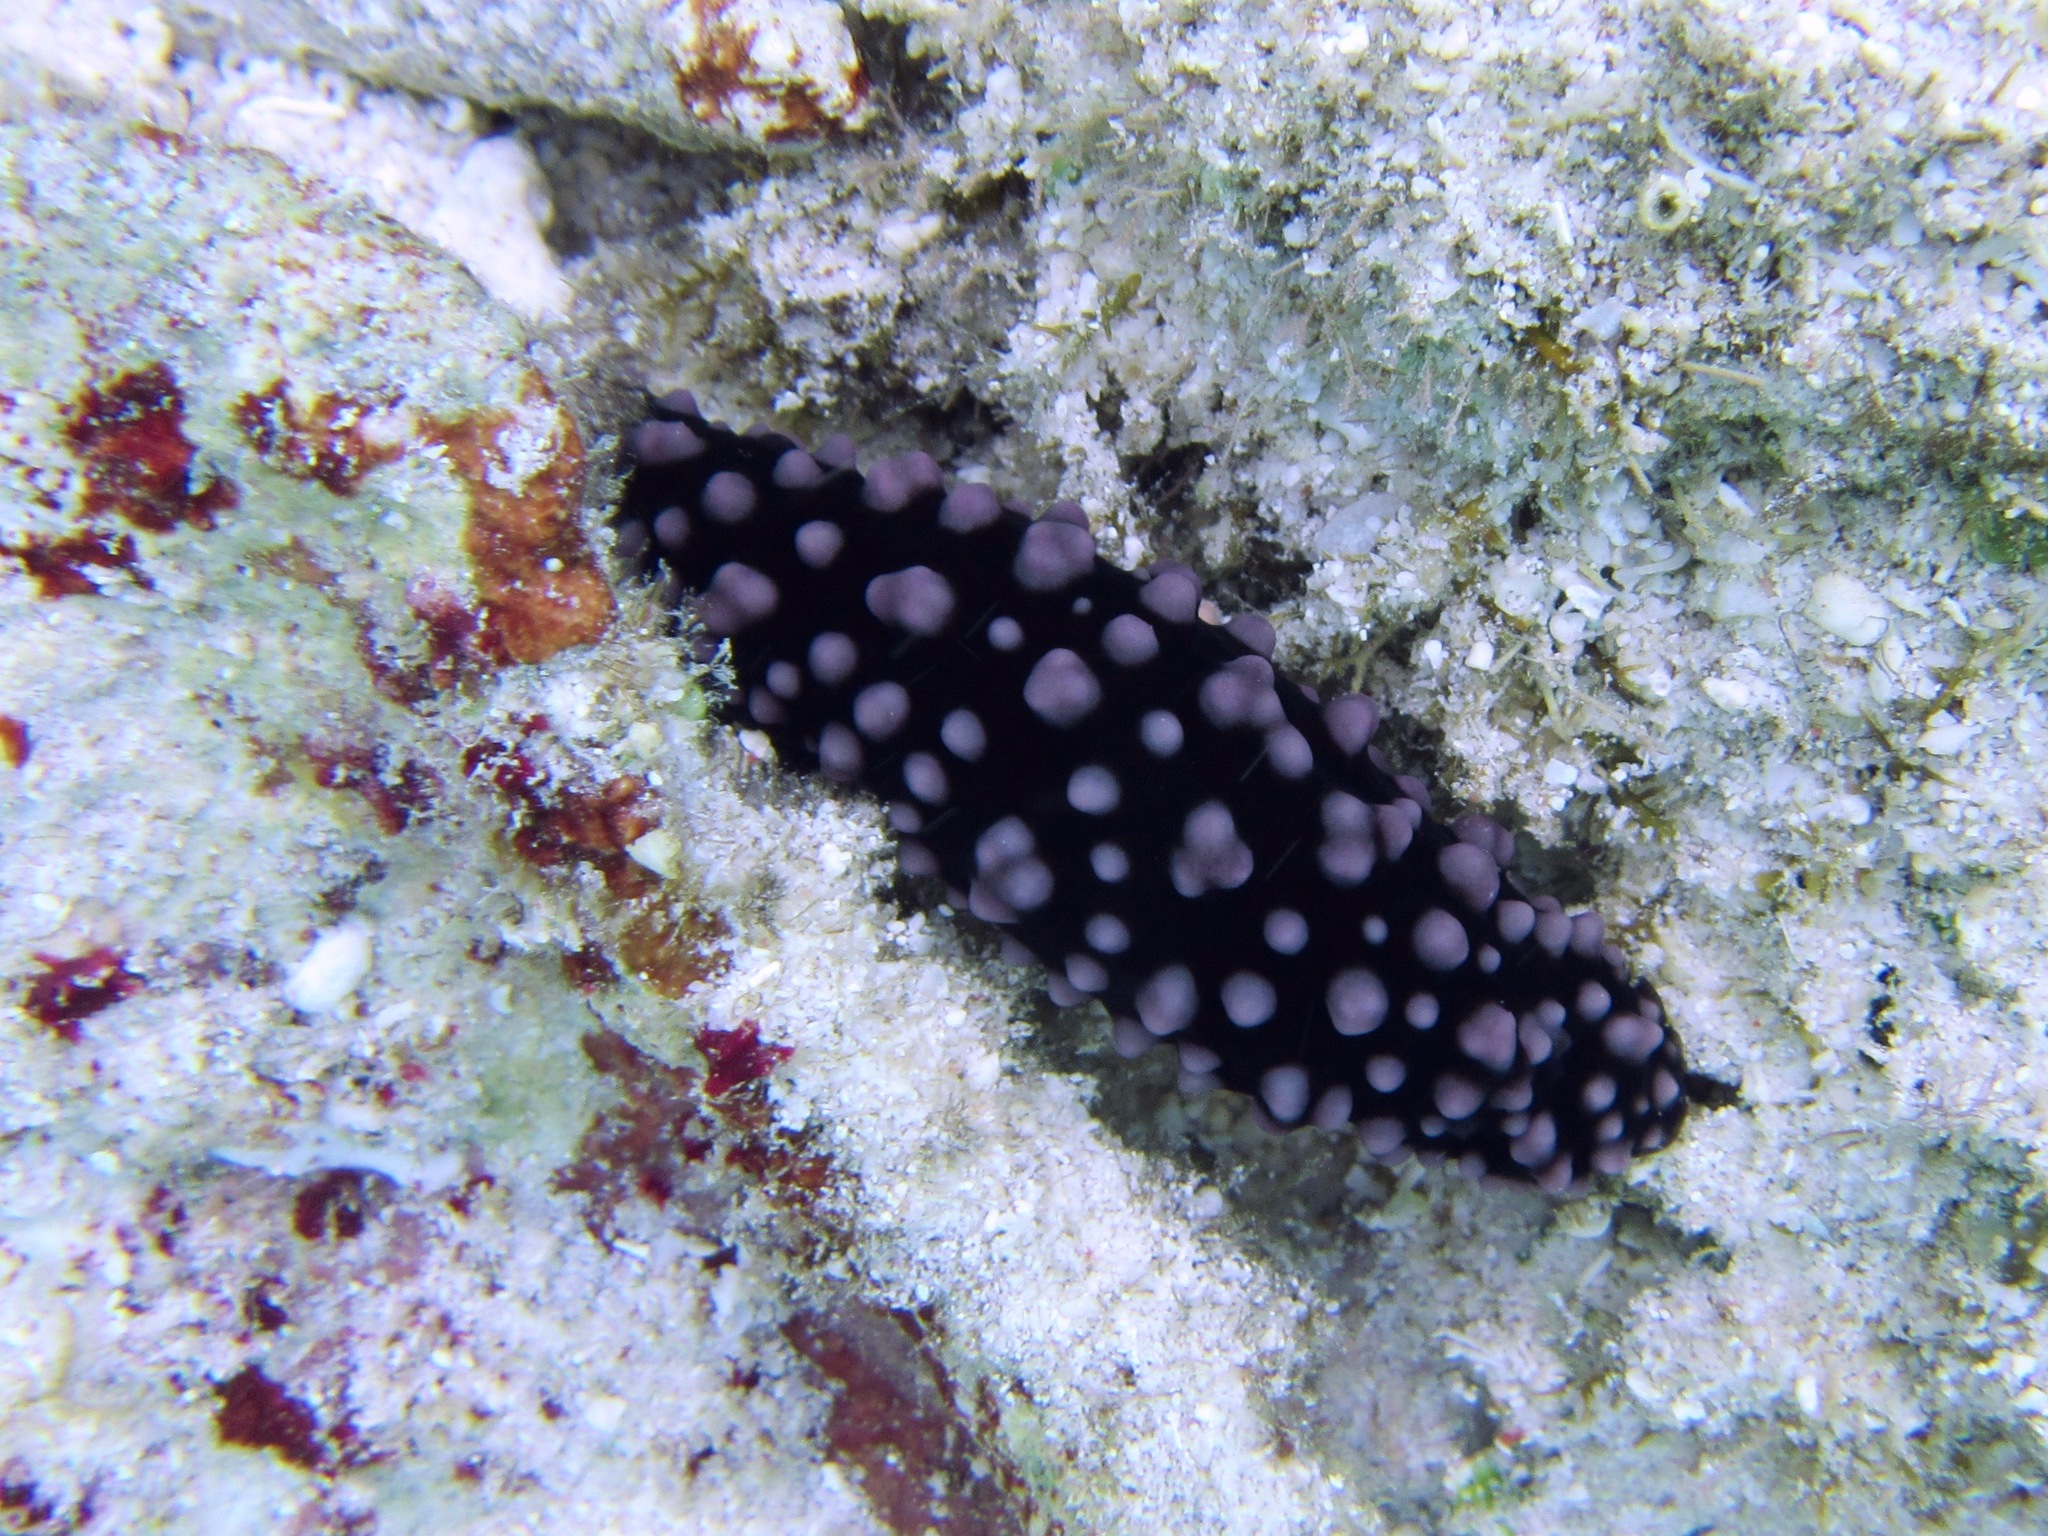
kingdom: Animalia
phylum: Mollusca
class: Gastropoda
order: Nudibranchia
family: Phyllidiidae
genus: Phyllidiella
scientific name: Phyllidiella nigra
